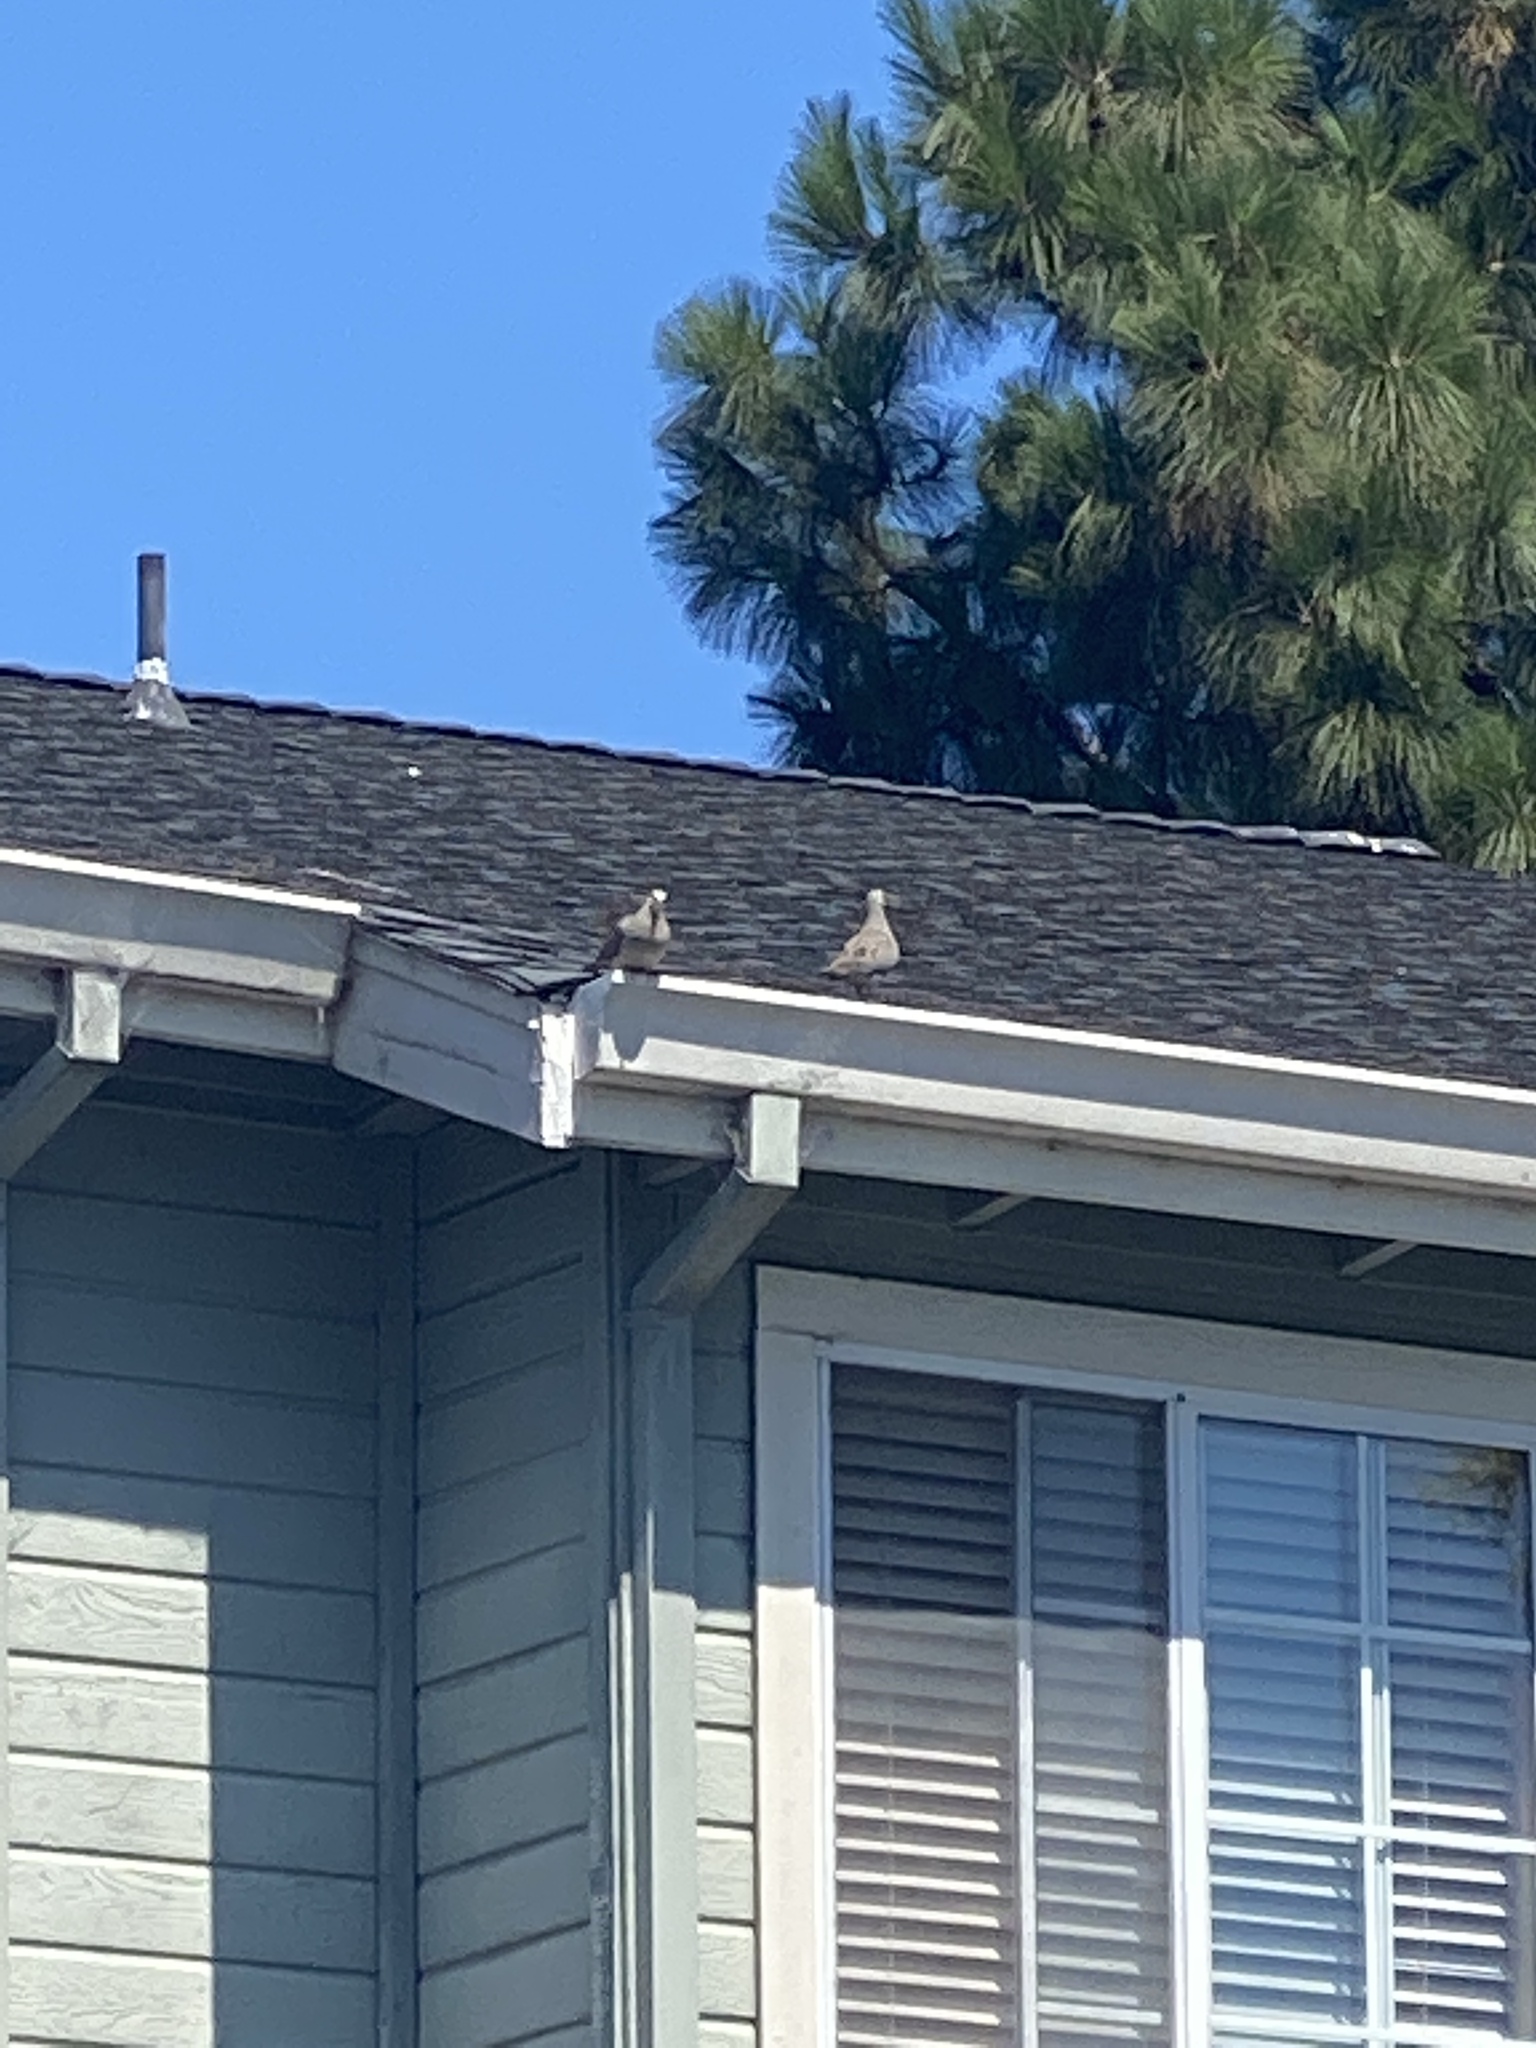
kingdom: Animalia
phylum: Chordata
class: Aves
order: Columbiformes
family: Columbidae
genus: Zenaida
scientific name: Zenaida macroura
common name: Mourning dove
